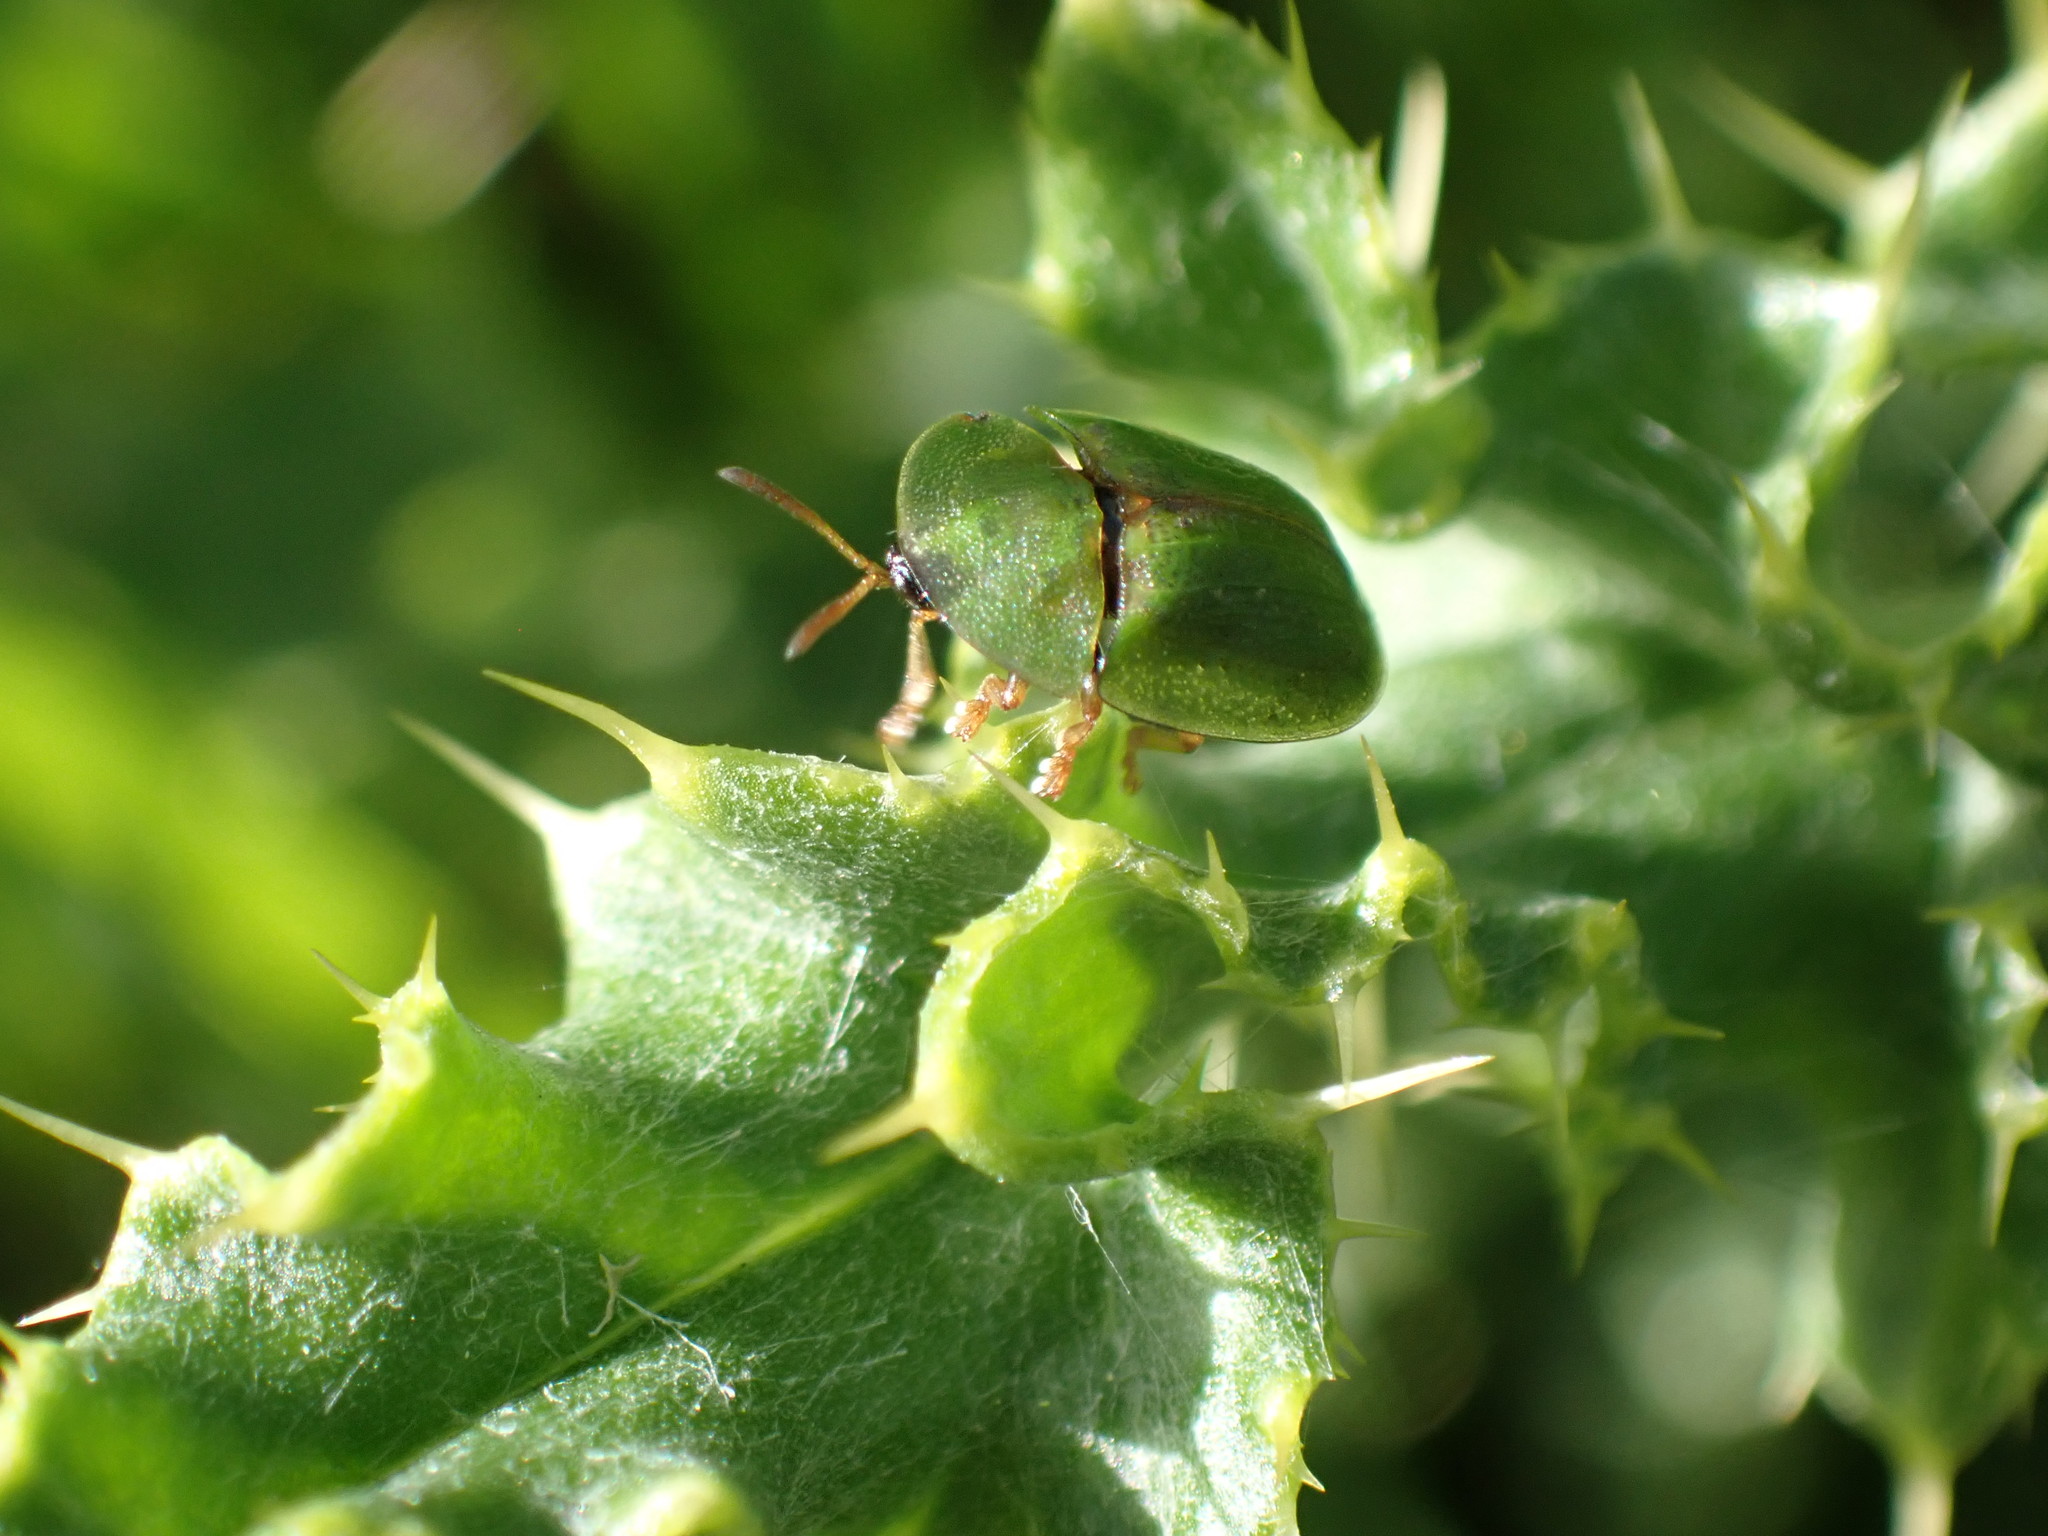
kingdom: Animalia
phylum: Arthropoda
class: Insecta
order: Coleoptera
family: Chrysomelidae
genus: Cassida
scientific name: Cassida rubiginosa
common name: Thistle tortoise beetle
